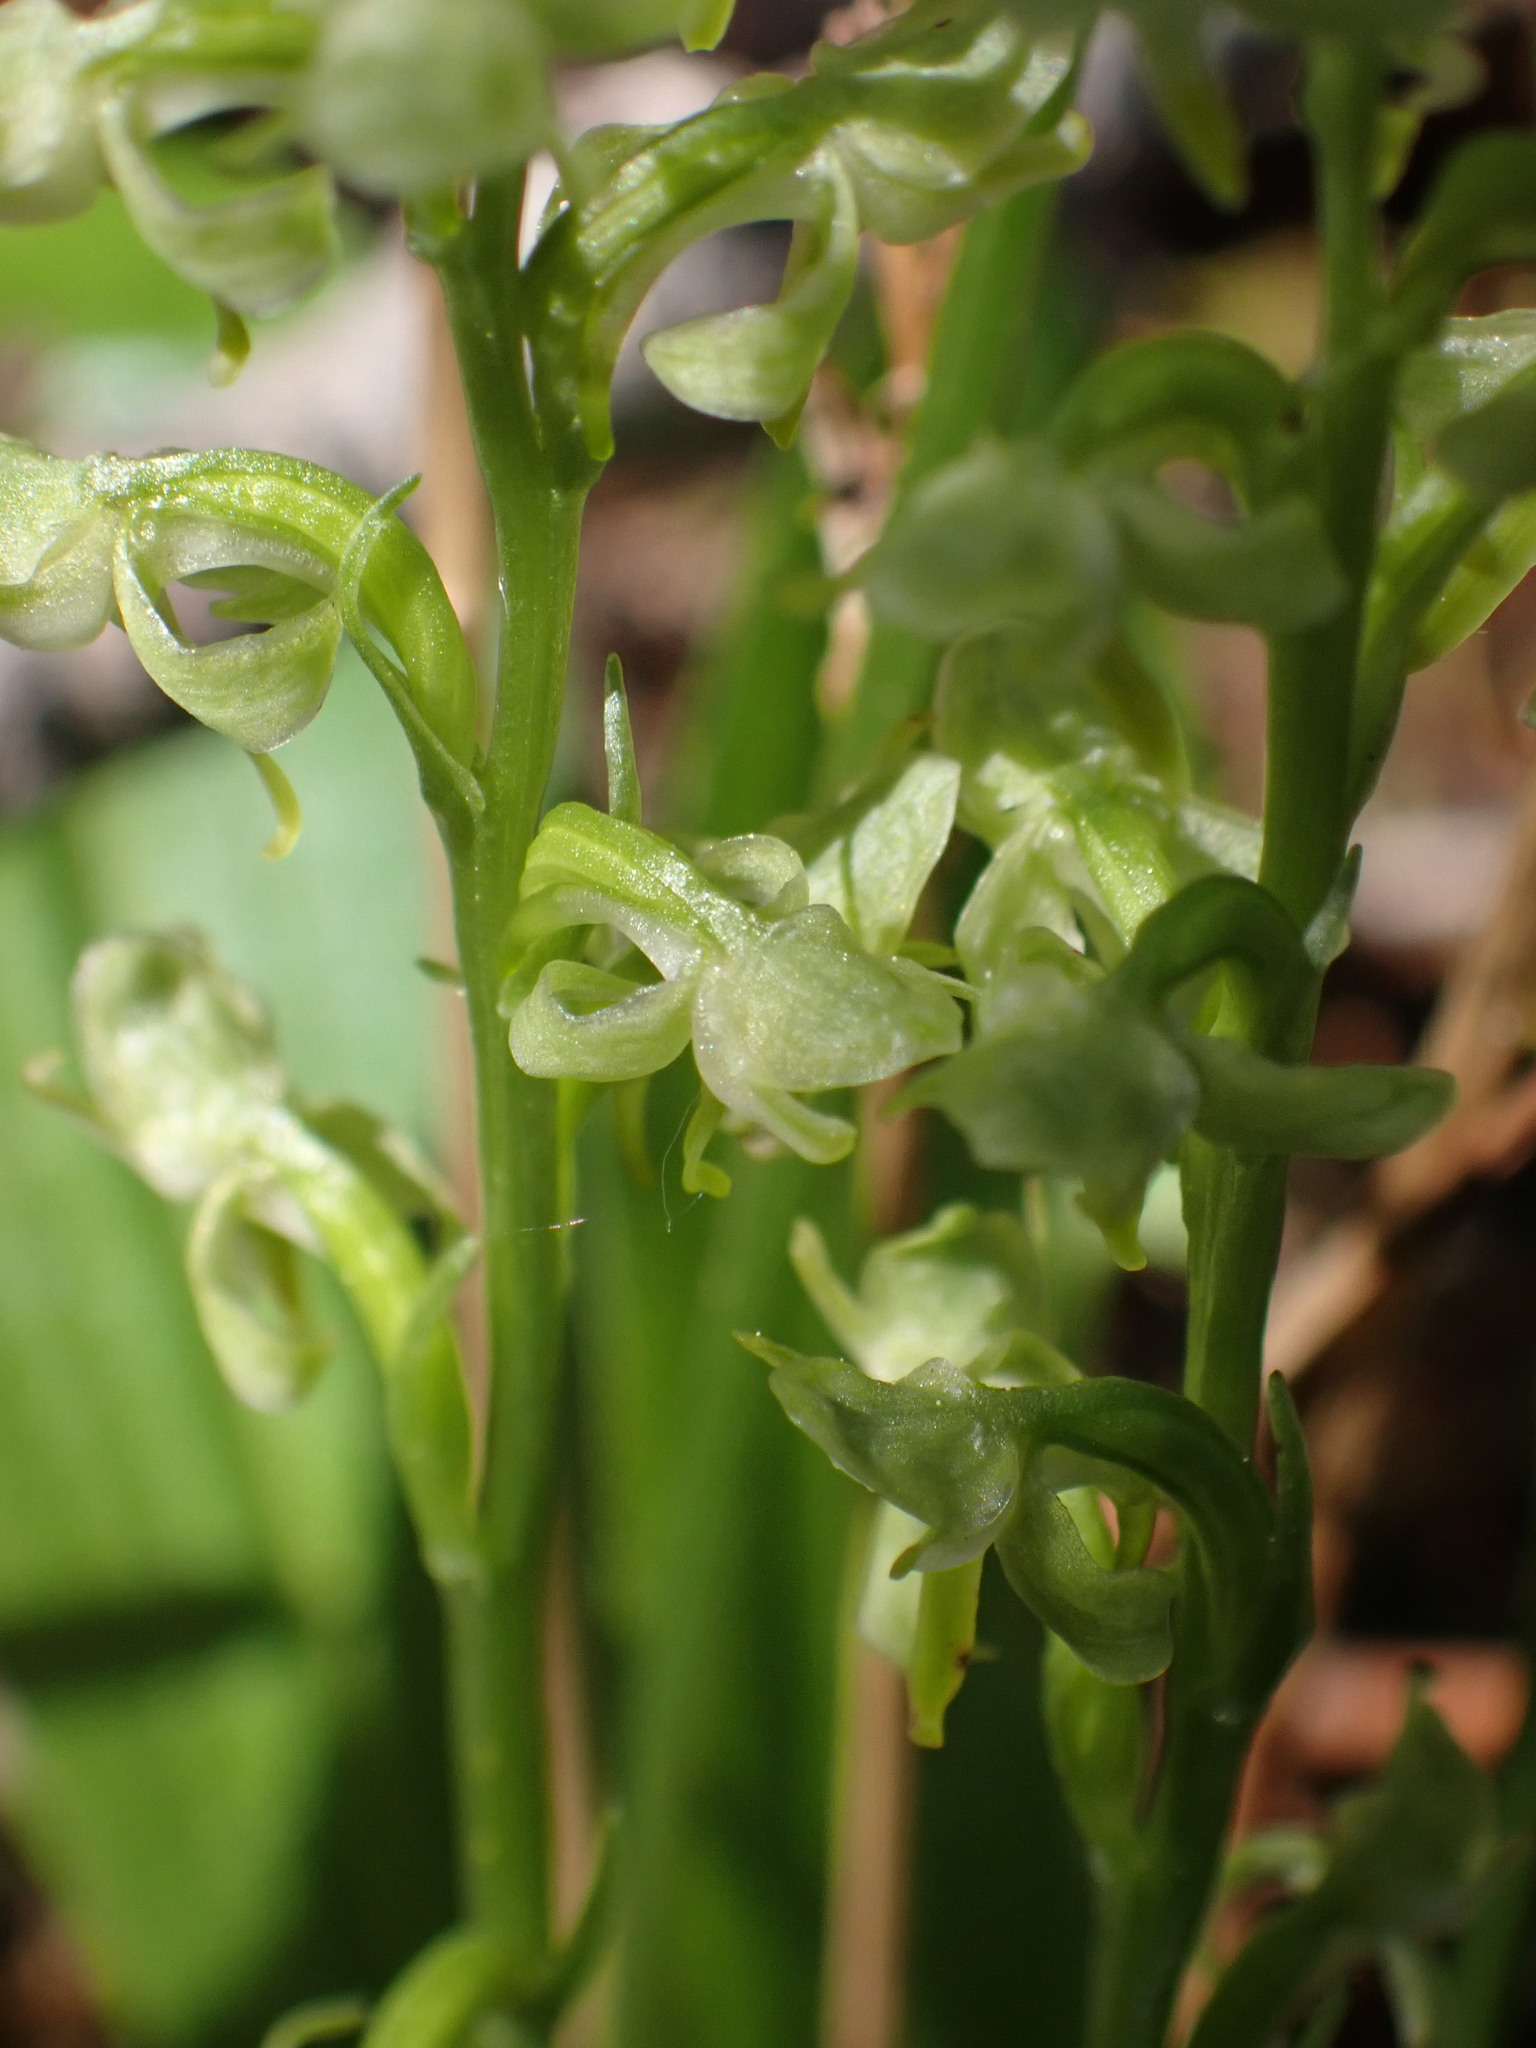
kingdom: Plantae
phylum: Tracheophyta
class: Liliopsida
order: Asparagales
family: Orchidaceae
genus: Platanthera
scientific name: Platanthera obtusata
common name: Blunt bog orchid
